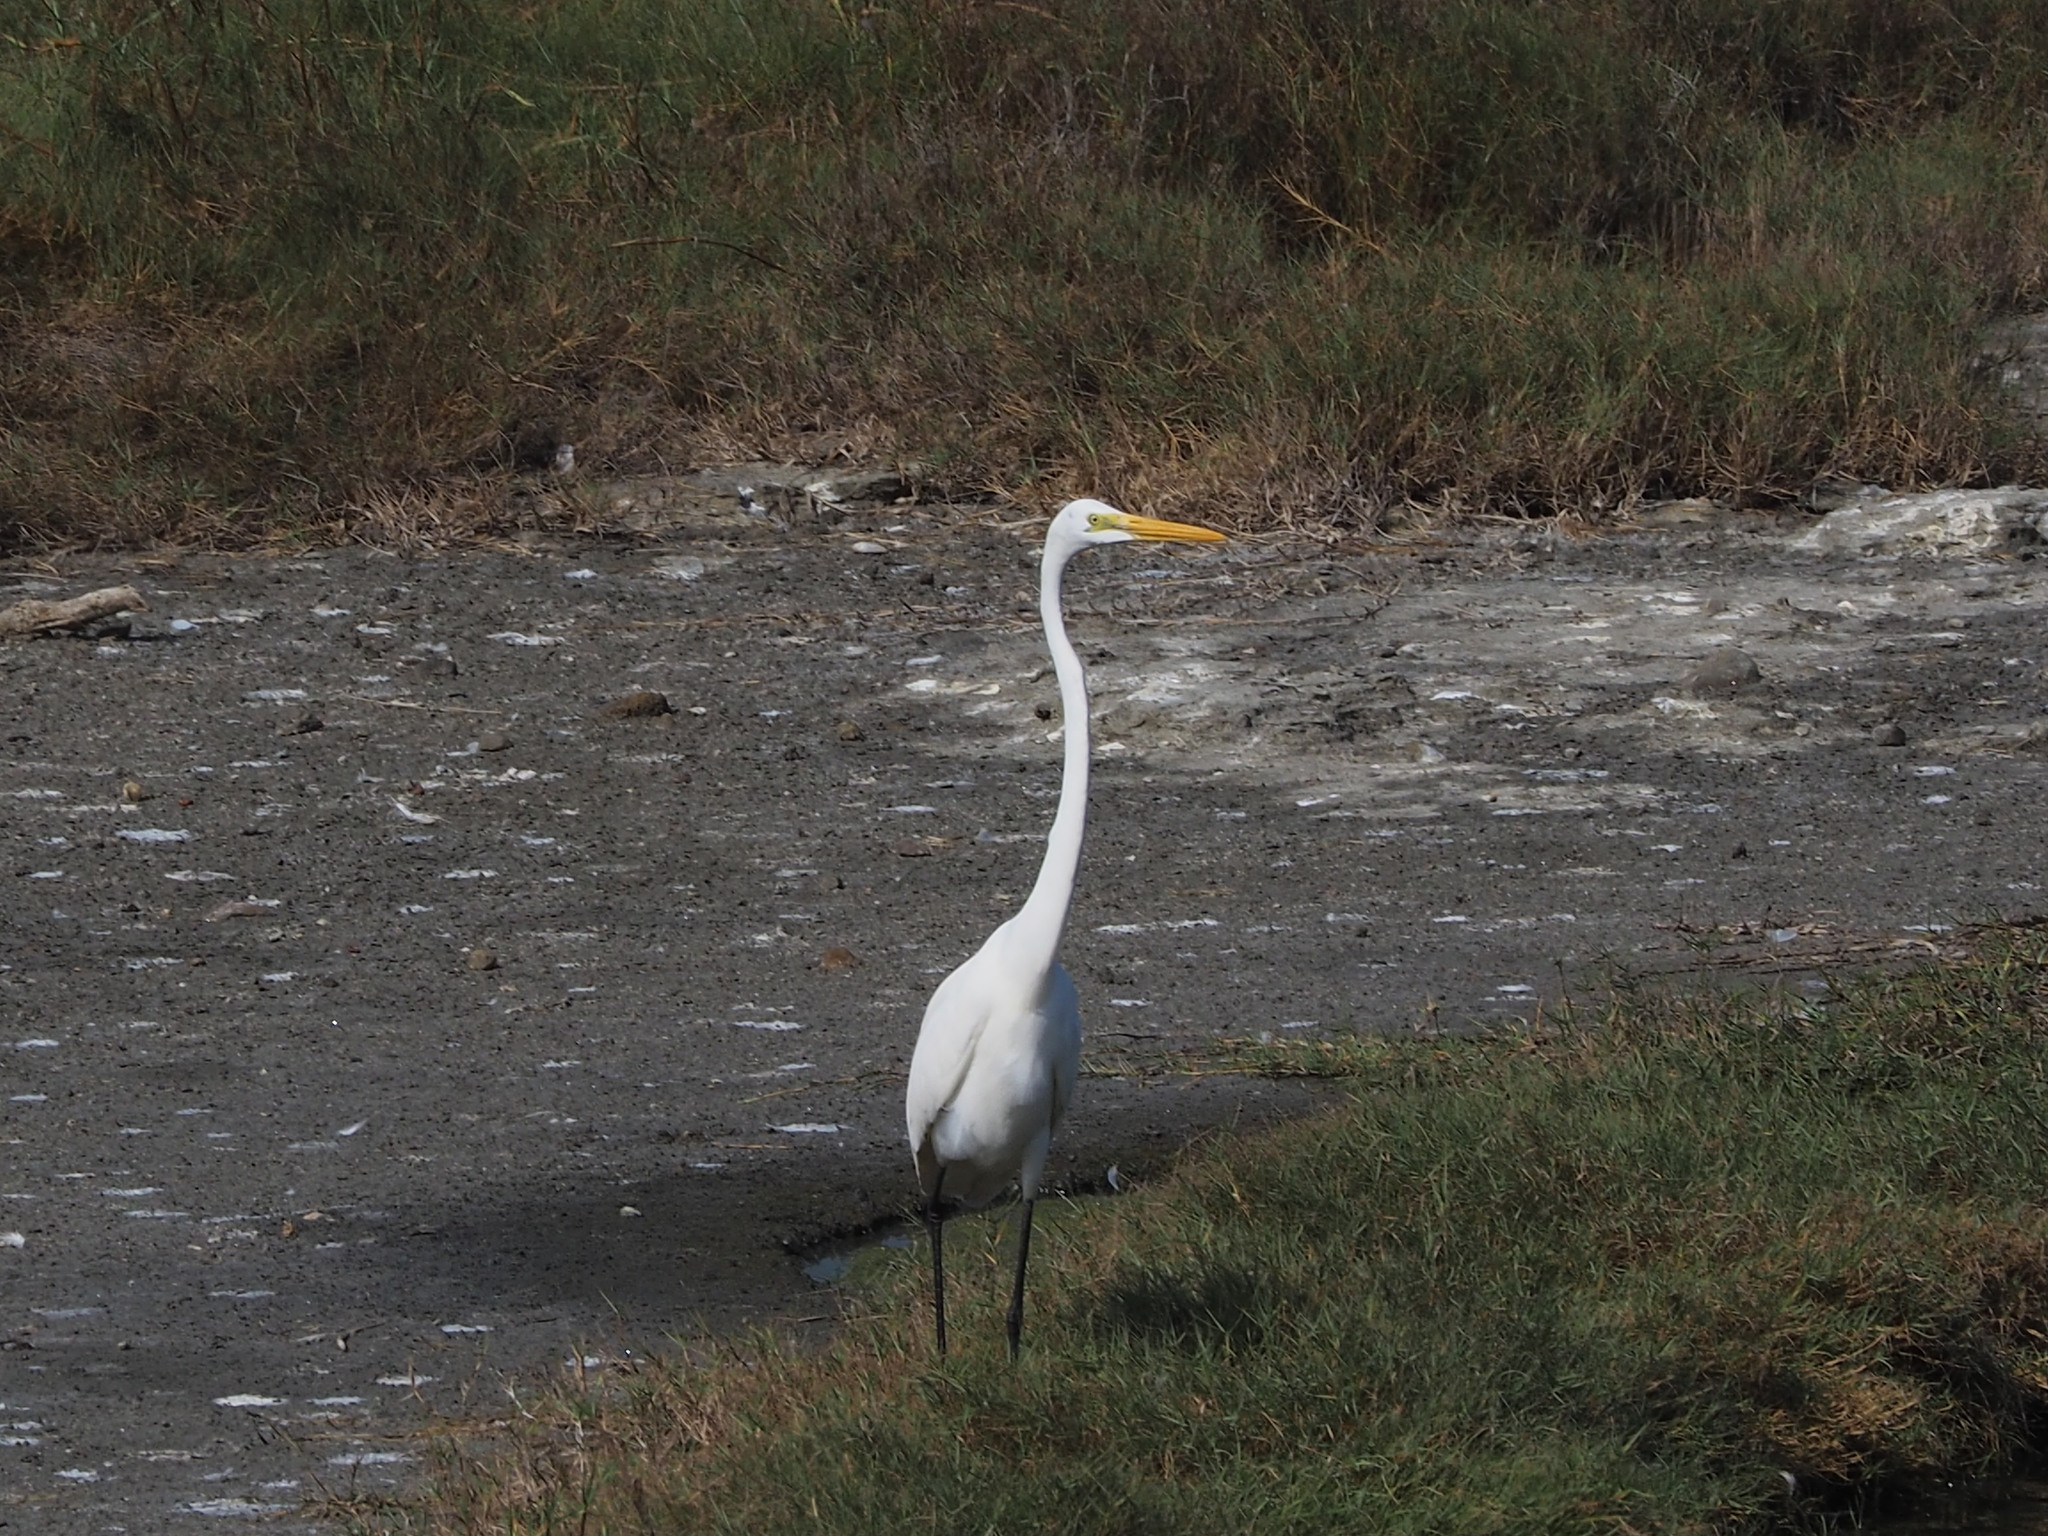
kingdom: Animalia
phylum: Chordata
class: Aves
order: Pelecaniformes
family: Ardeidae
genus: Ardea
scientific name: Ardea alba
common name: Great egret
